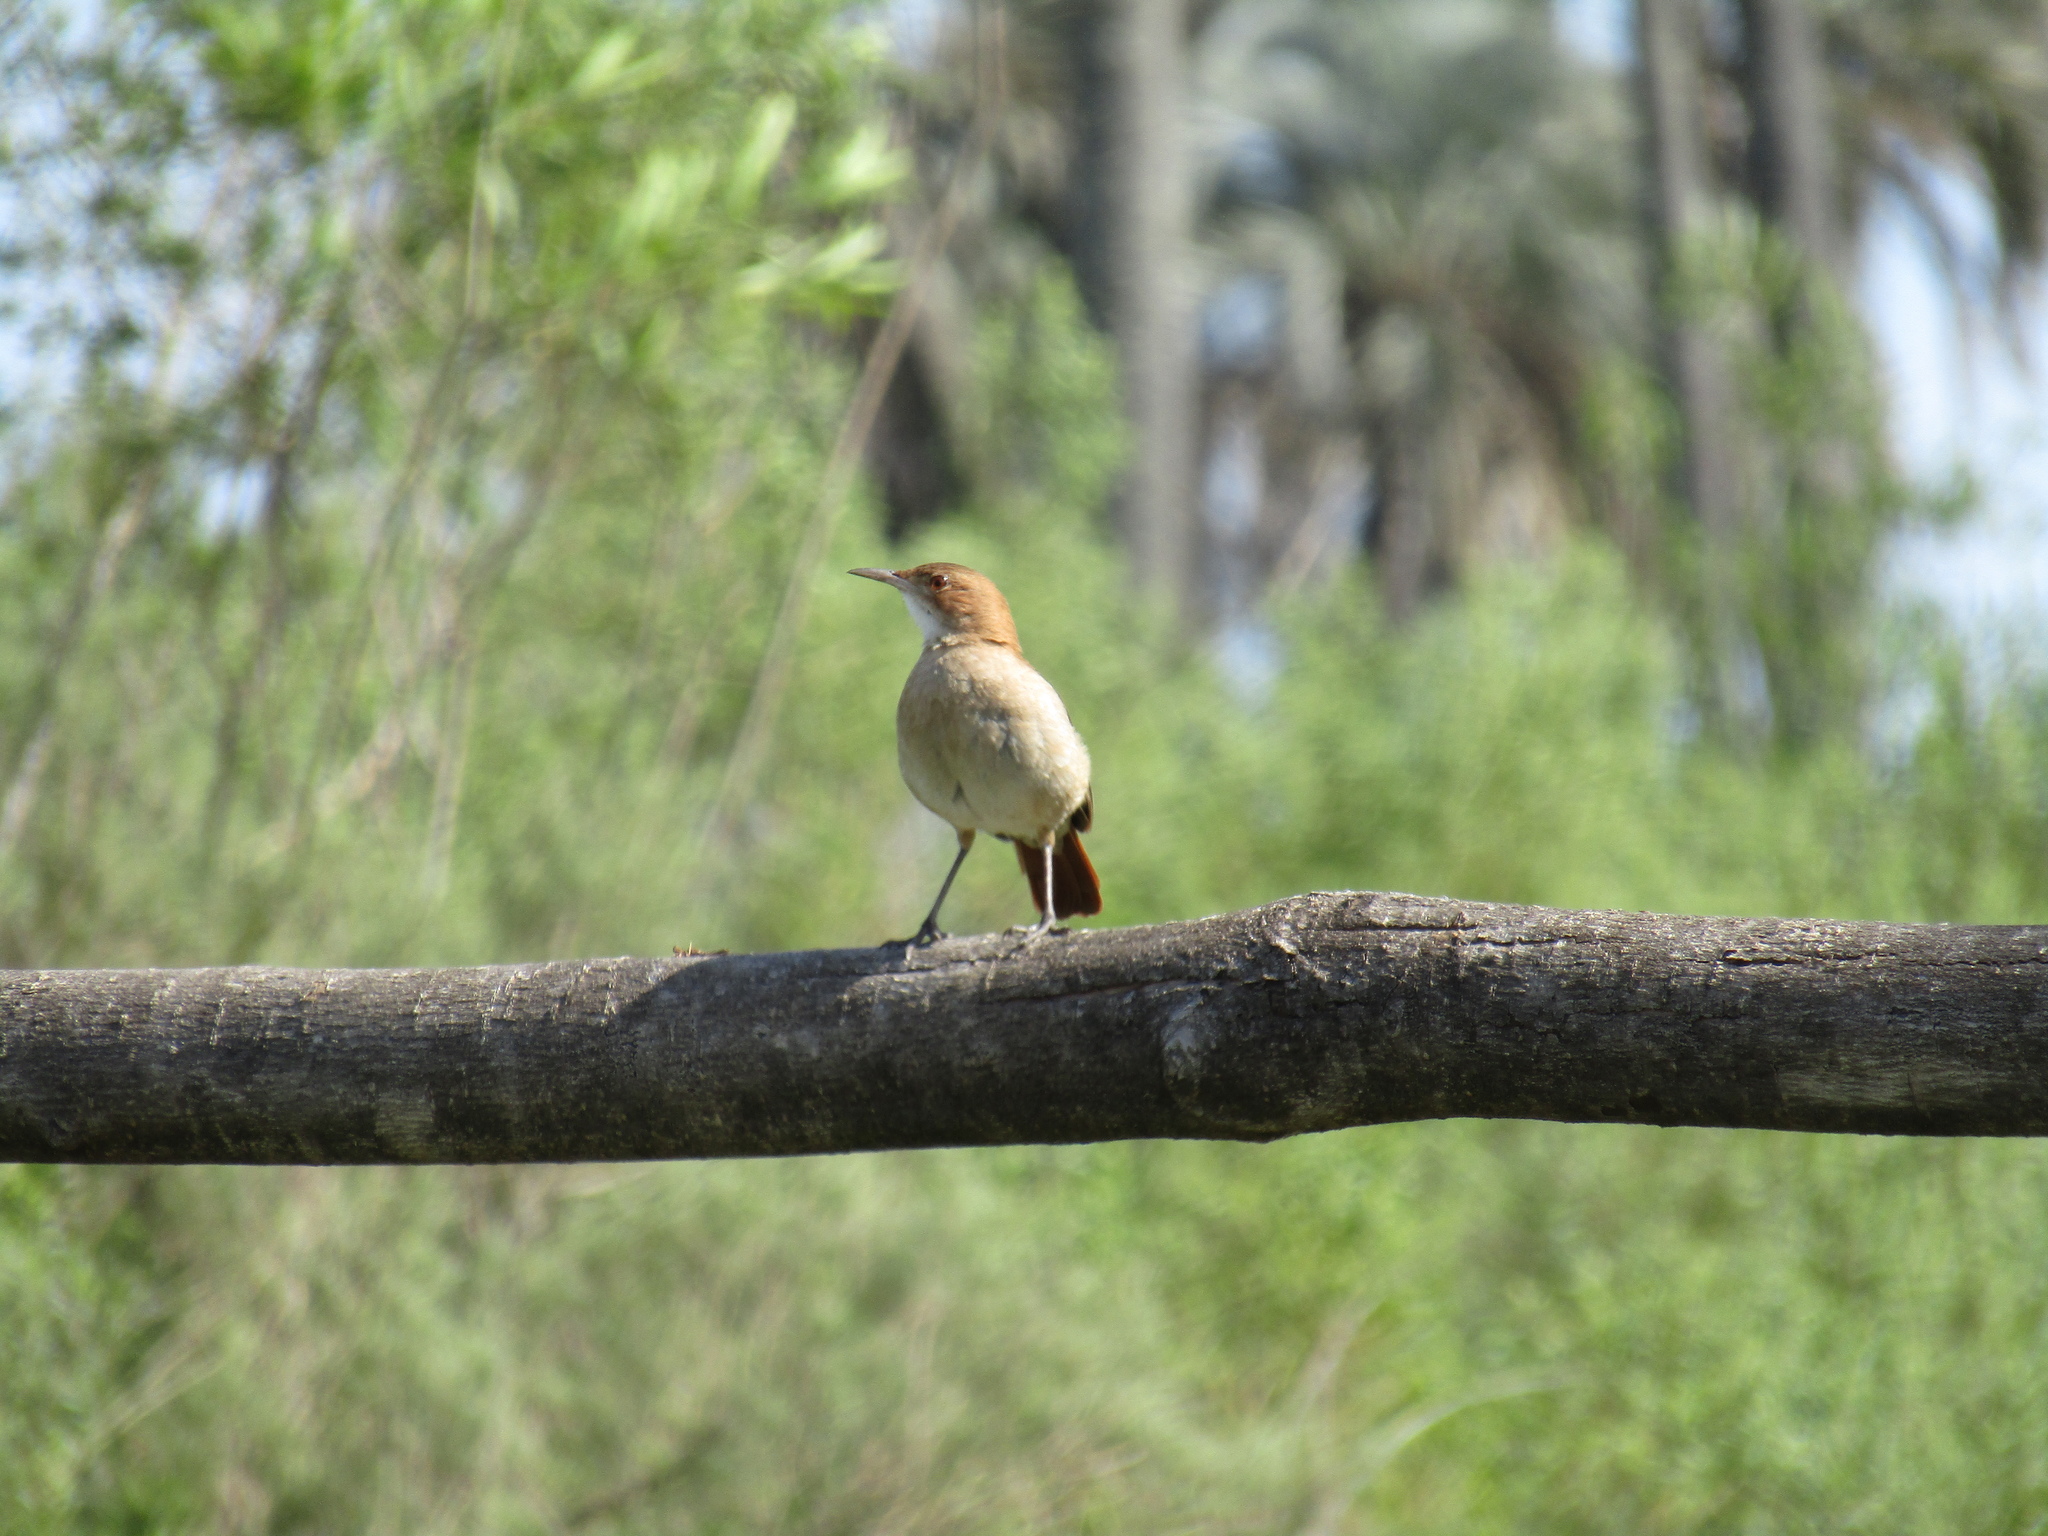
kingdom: Animalia
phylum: Chordata
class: Aves
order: Passeriformes
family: Furnariidae
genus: Furnarius
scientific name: Furnarius rufus
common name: Rufous hornero
